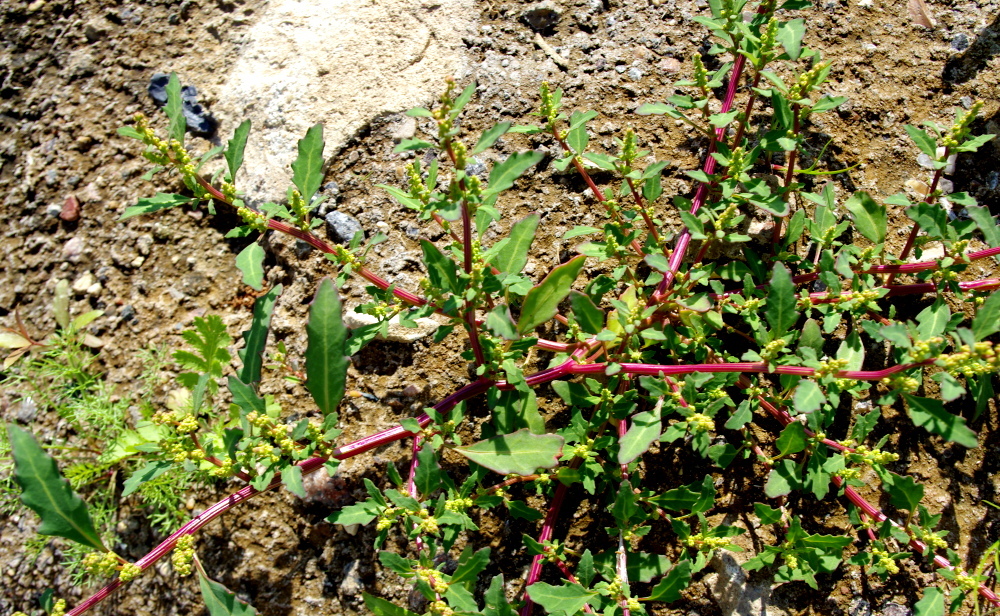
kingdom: Plantae
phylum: Tracheophyta
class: Magnoliopsida
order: Caryophyllales
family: Amaranthaceae
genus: Oxybasis
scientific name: Oxybasis glauca
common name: Glaucous goosefoot
